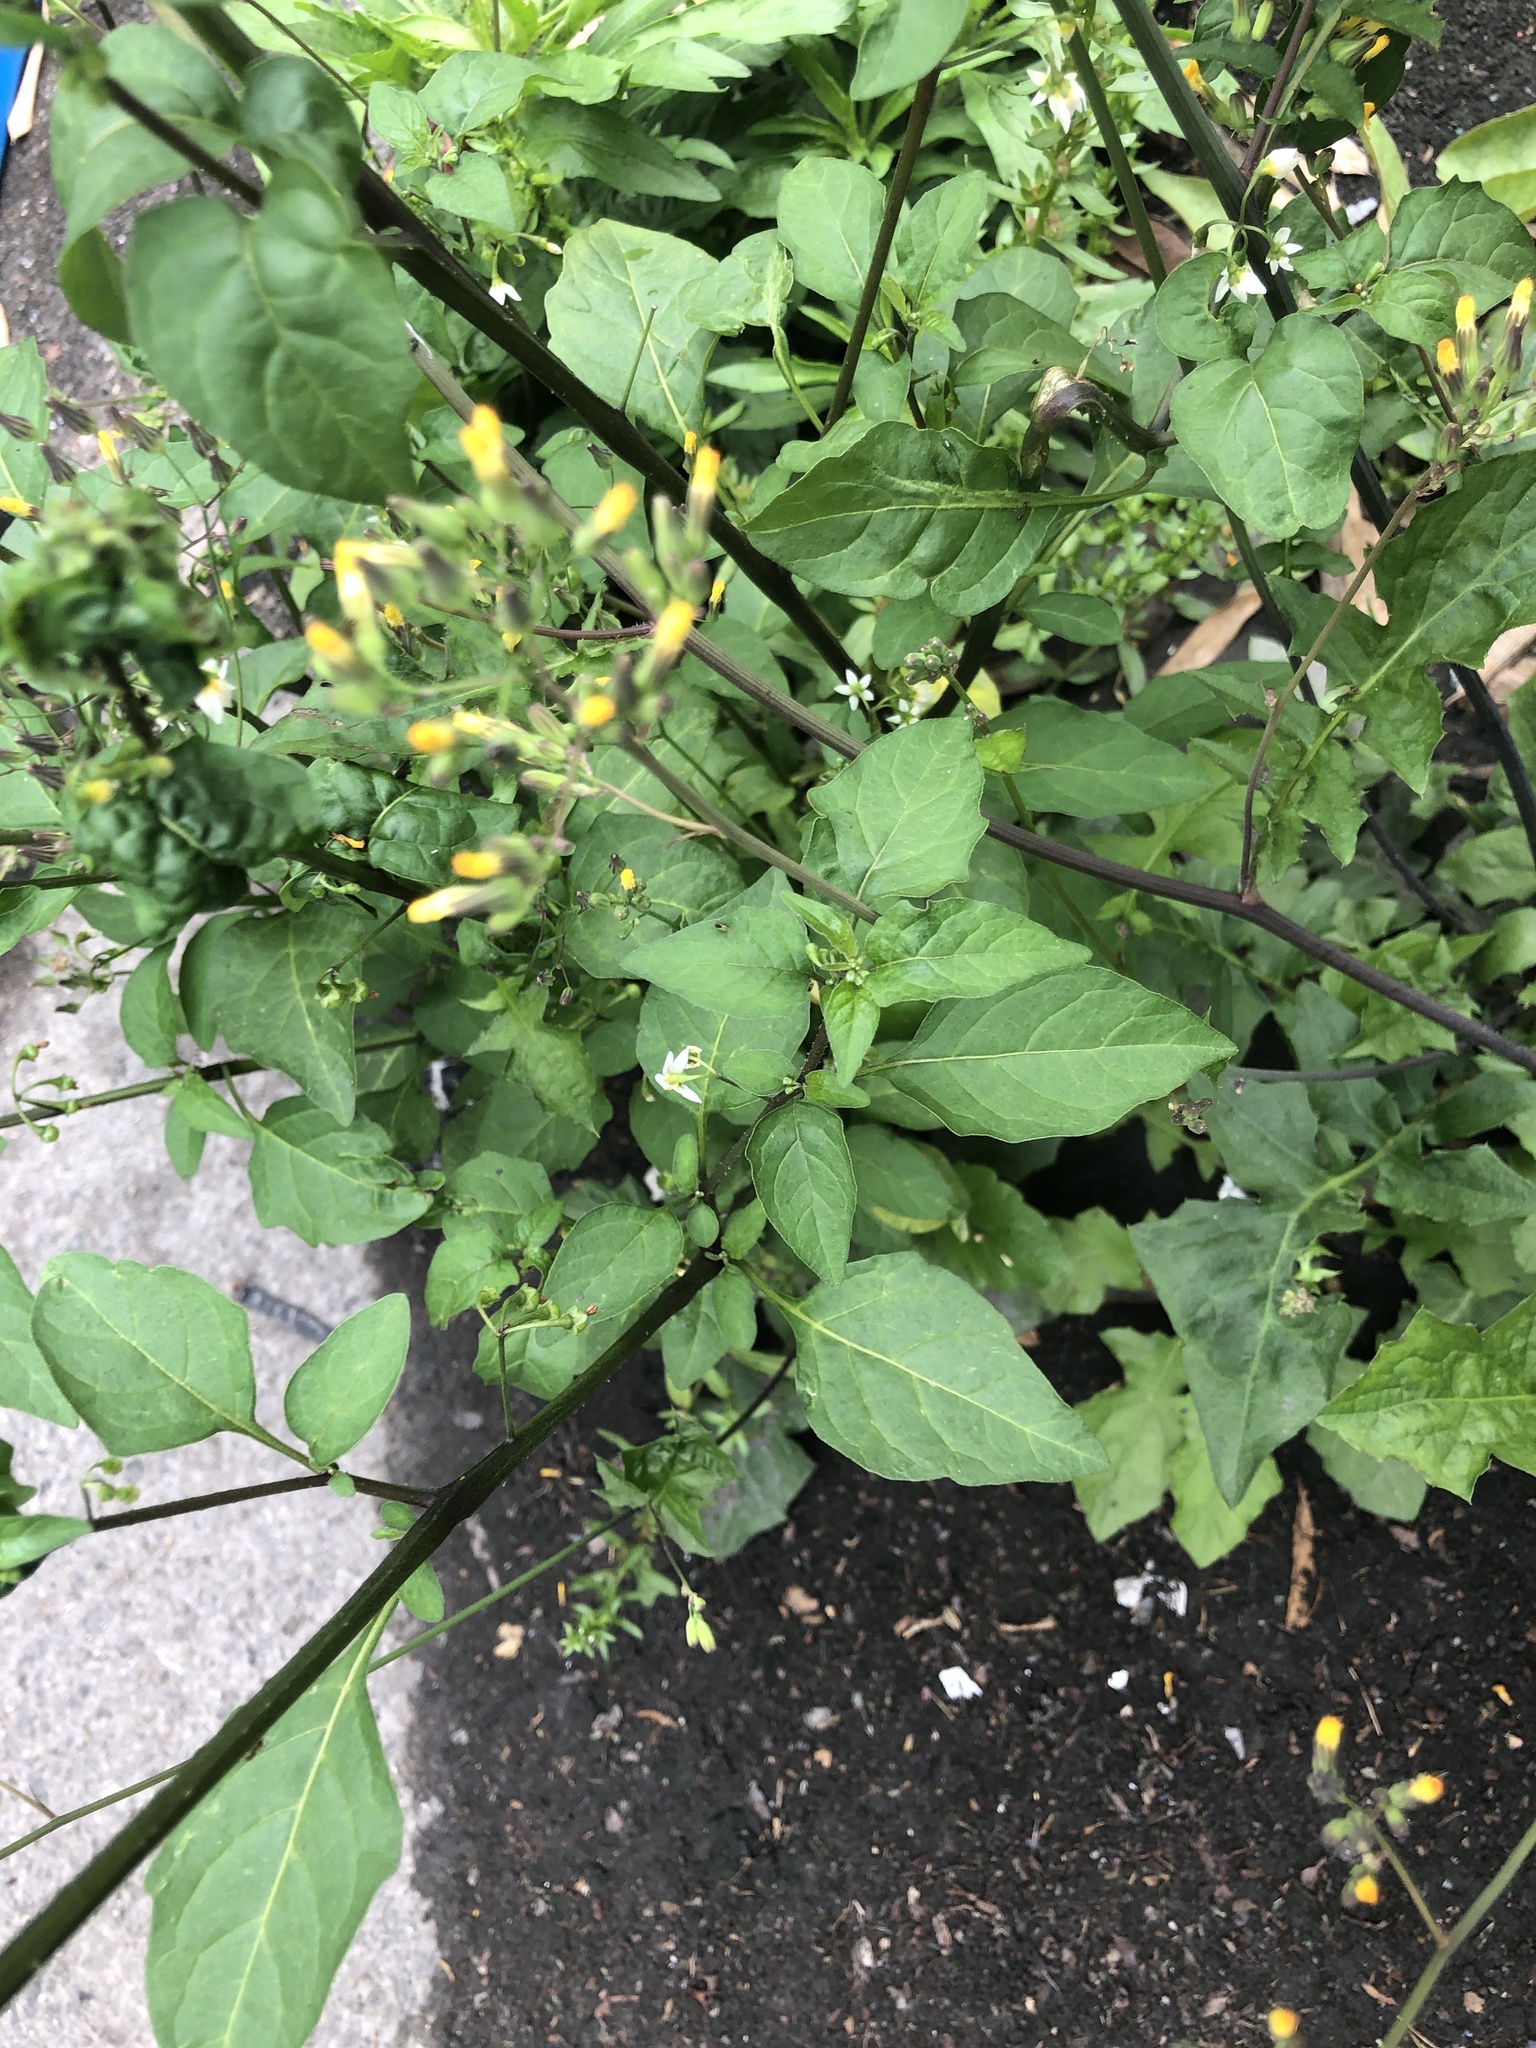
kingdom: Plantae
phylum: Tracheophyta
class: Magnoliopsida
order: Asterales
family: Asteraceae
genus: Youngia
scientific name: Youngia japonica
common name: Oriental false hawksbeard
